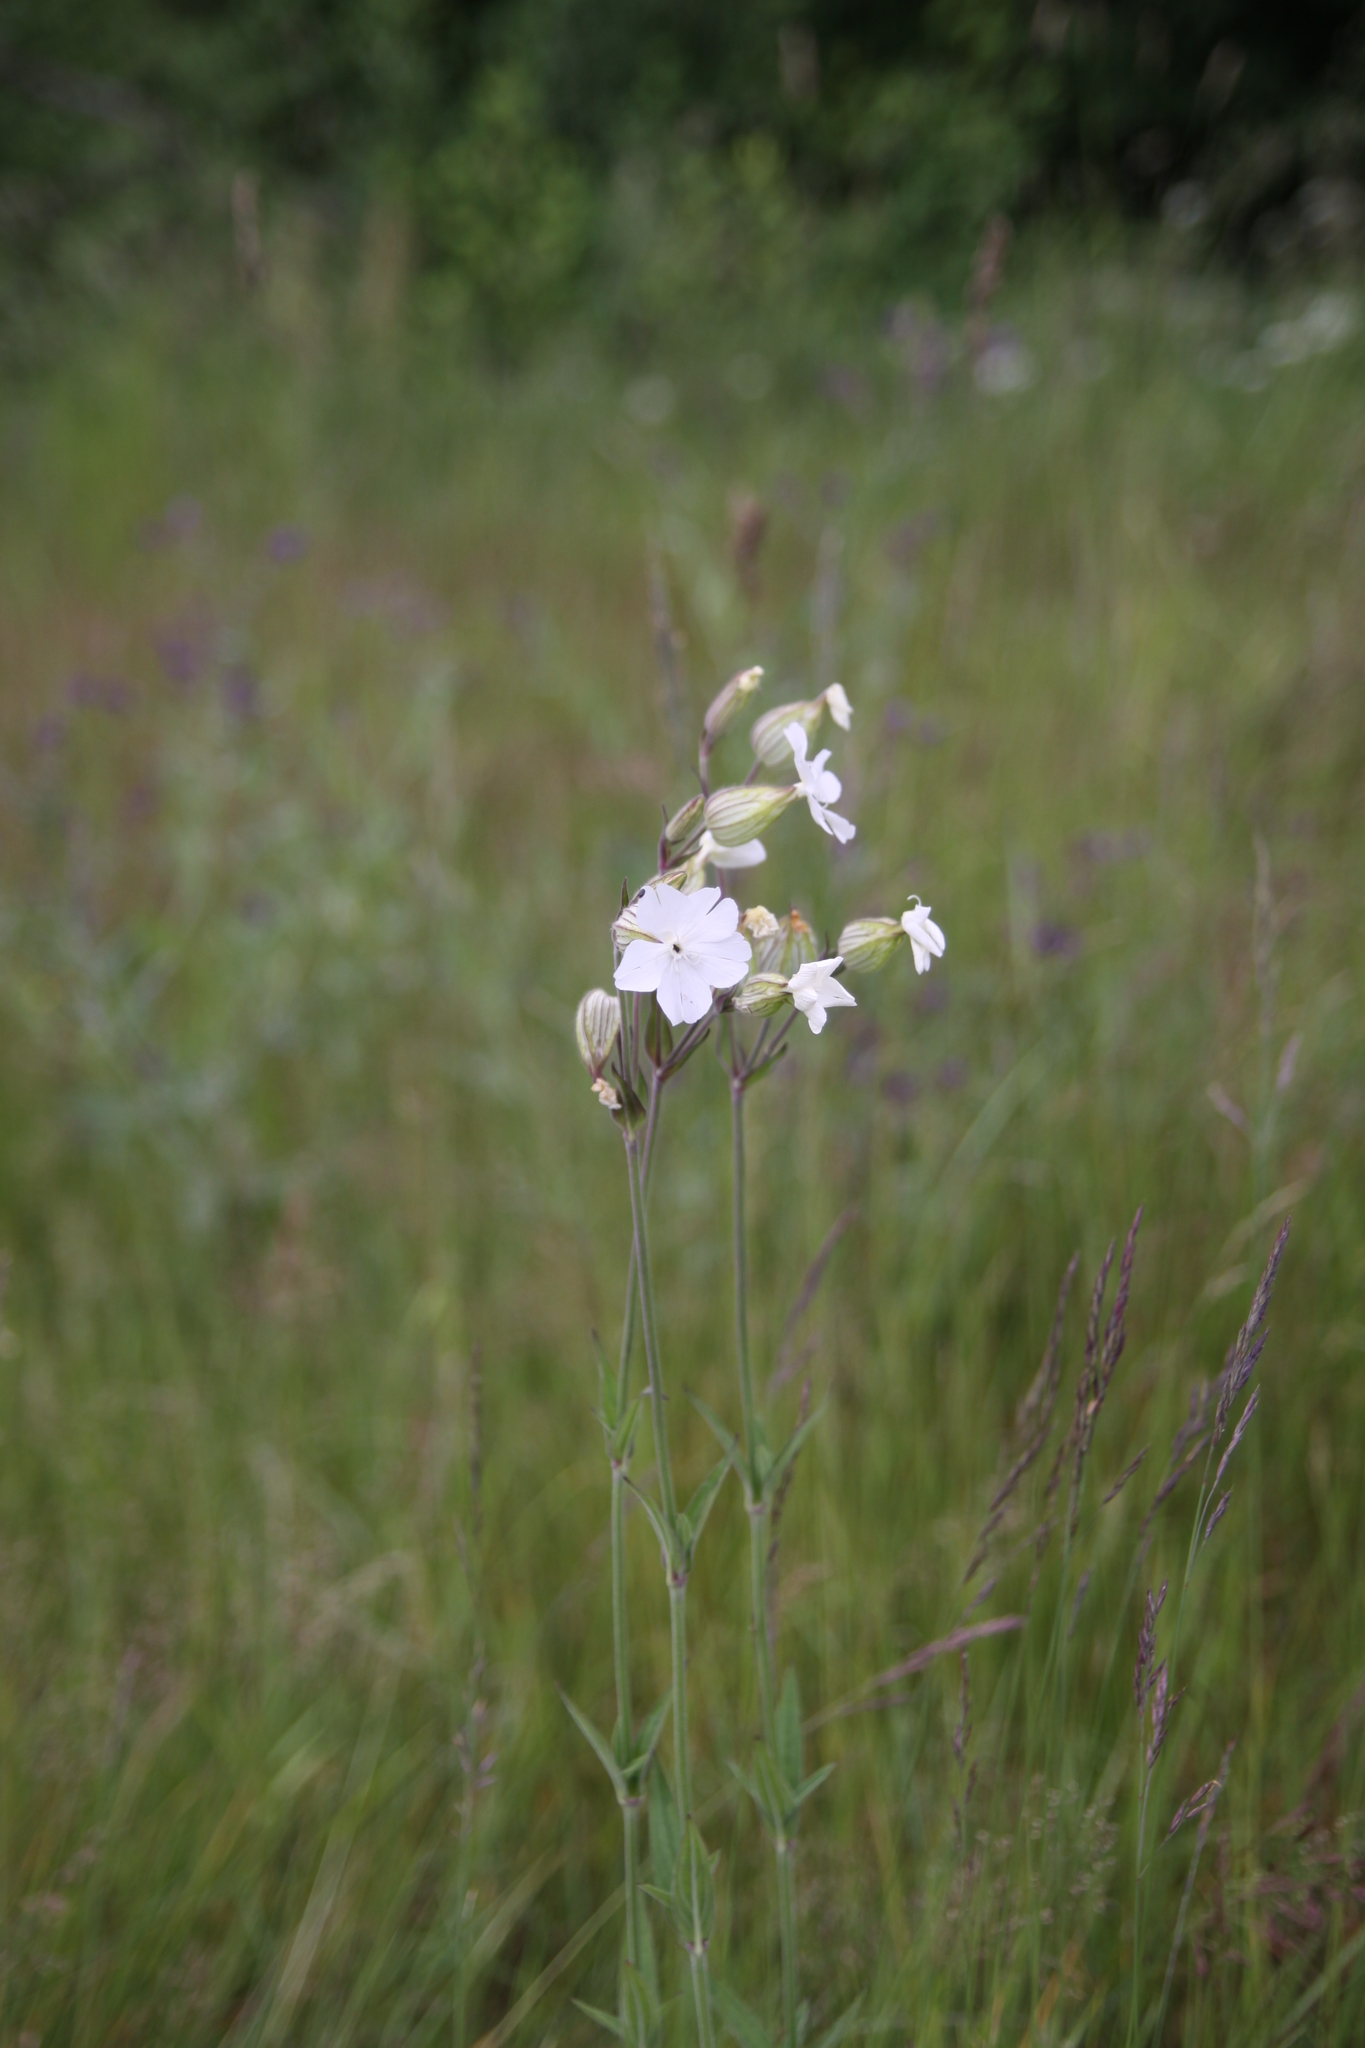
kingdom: Plantae
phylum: Tracheophyta
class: Magnoliopsida
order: Caryophyllales
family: Caryophyllaceae
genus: Silene
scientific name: Silene latifolia
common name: White campion
